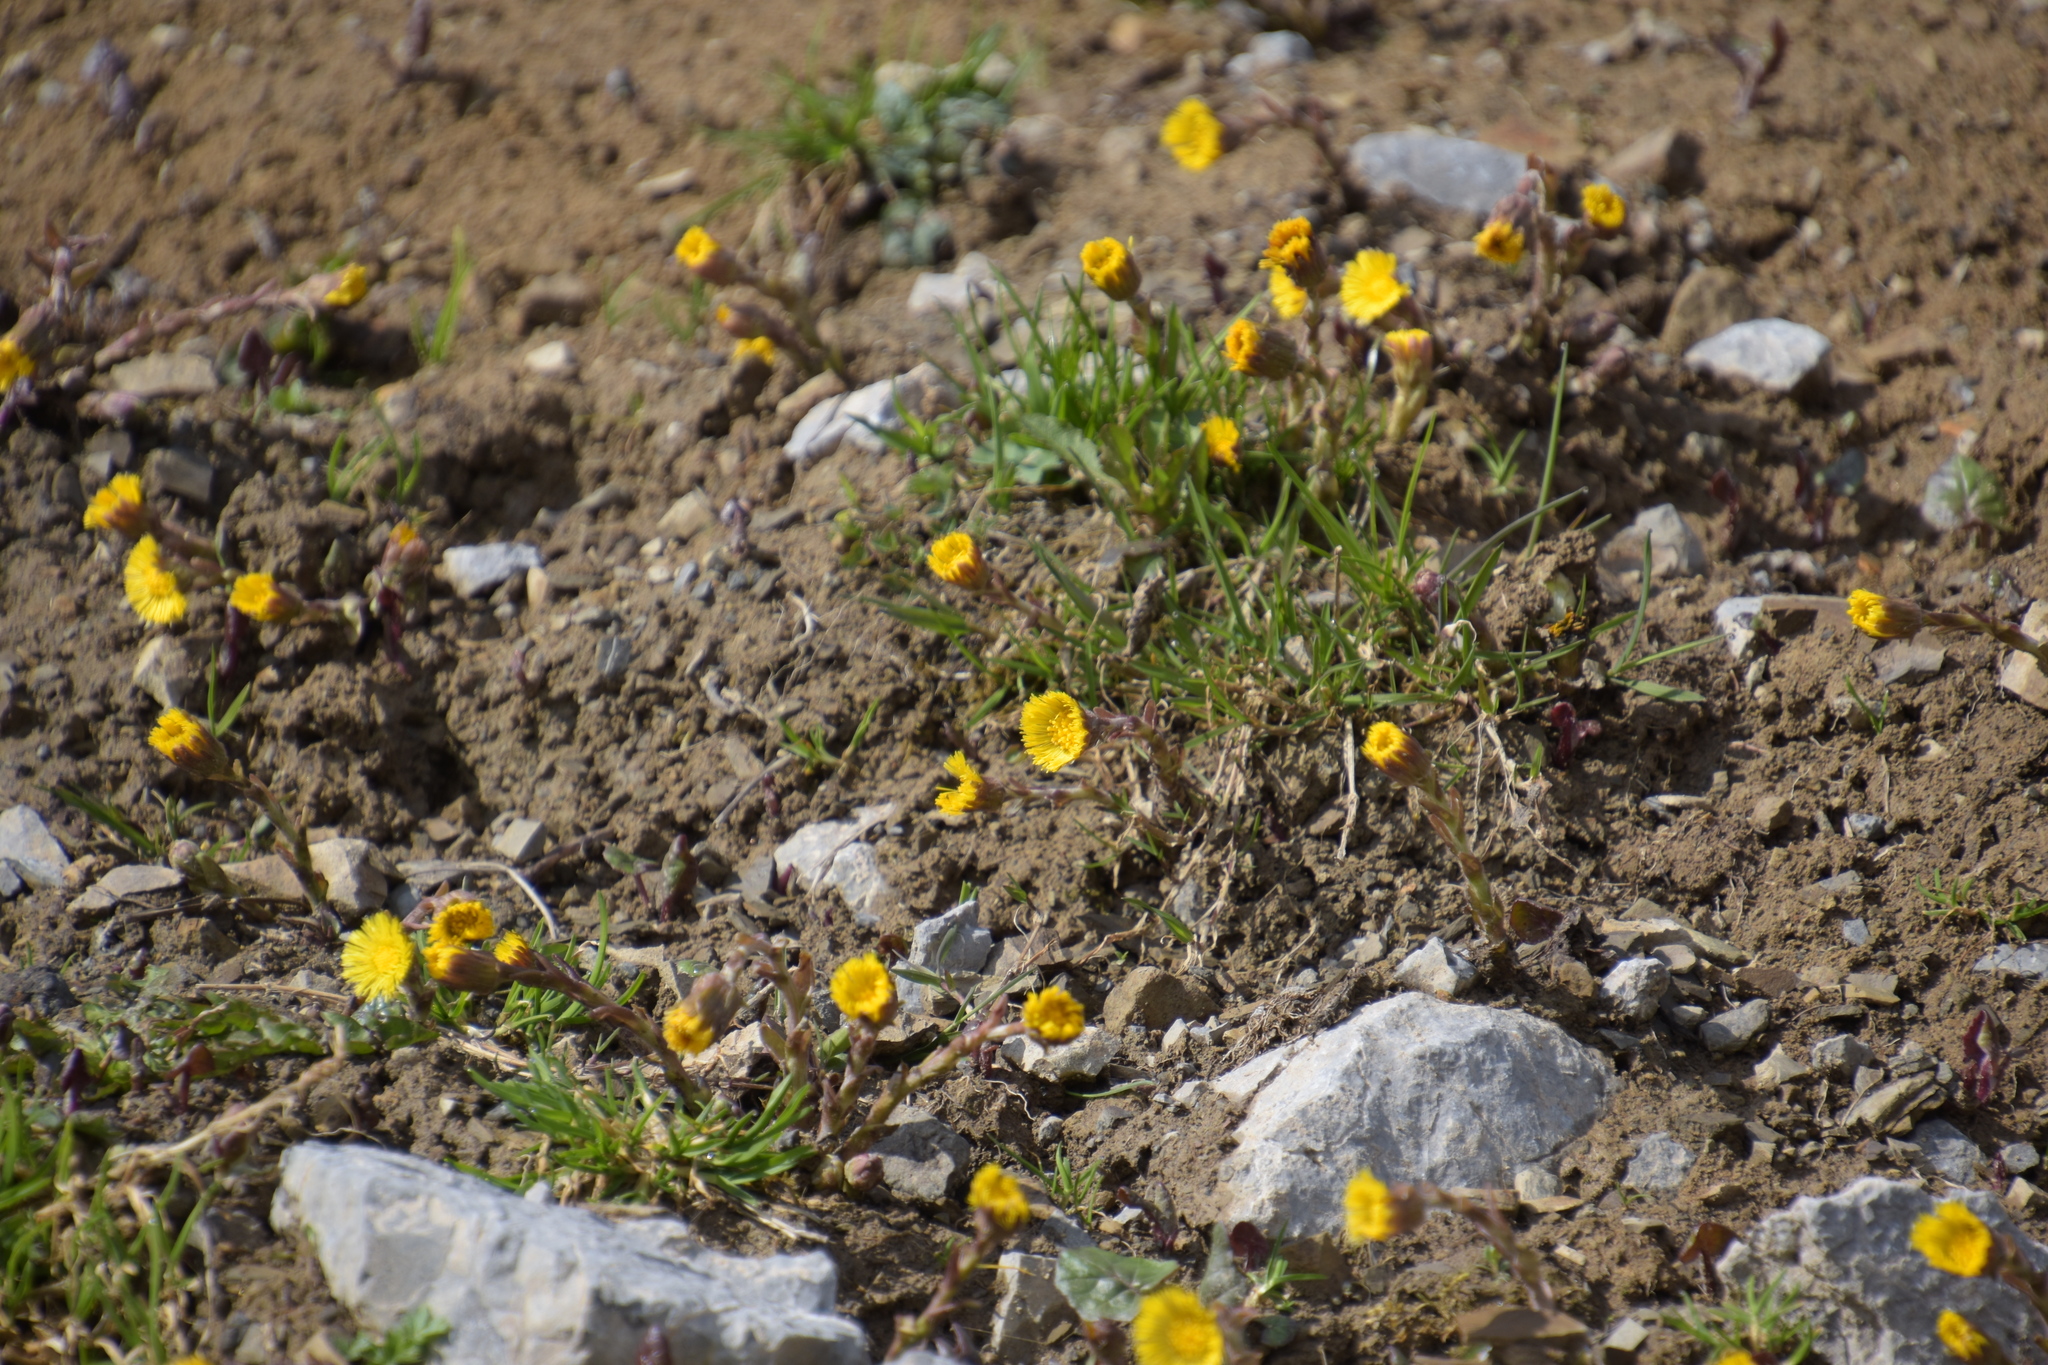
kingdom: Plantae
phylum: Tracheophyta
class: Magnoliopsida
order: Asterales
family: Asteraceae
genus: Tussilago
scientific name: Tussilago farfara
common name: Coltsfoot
